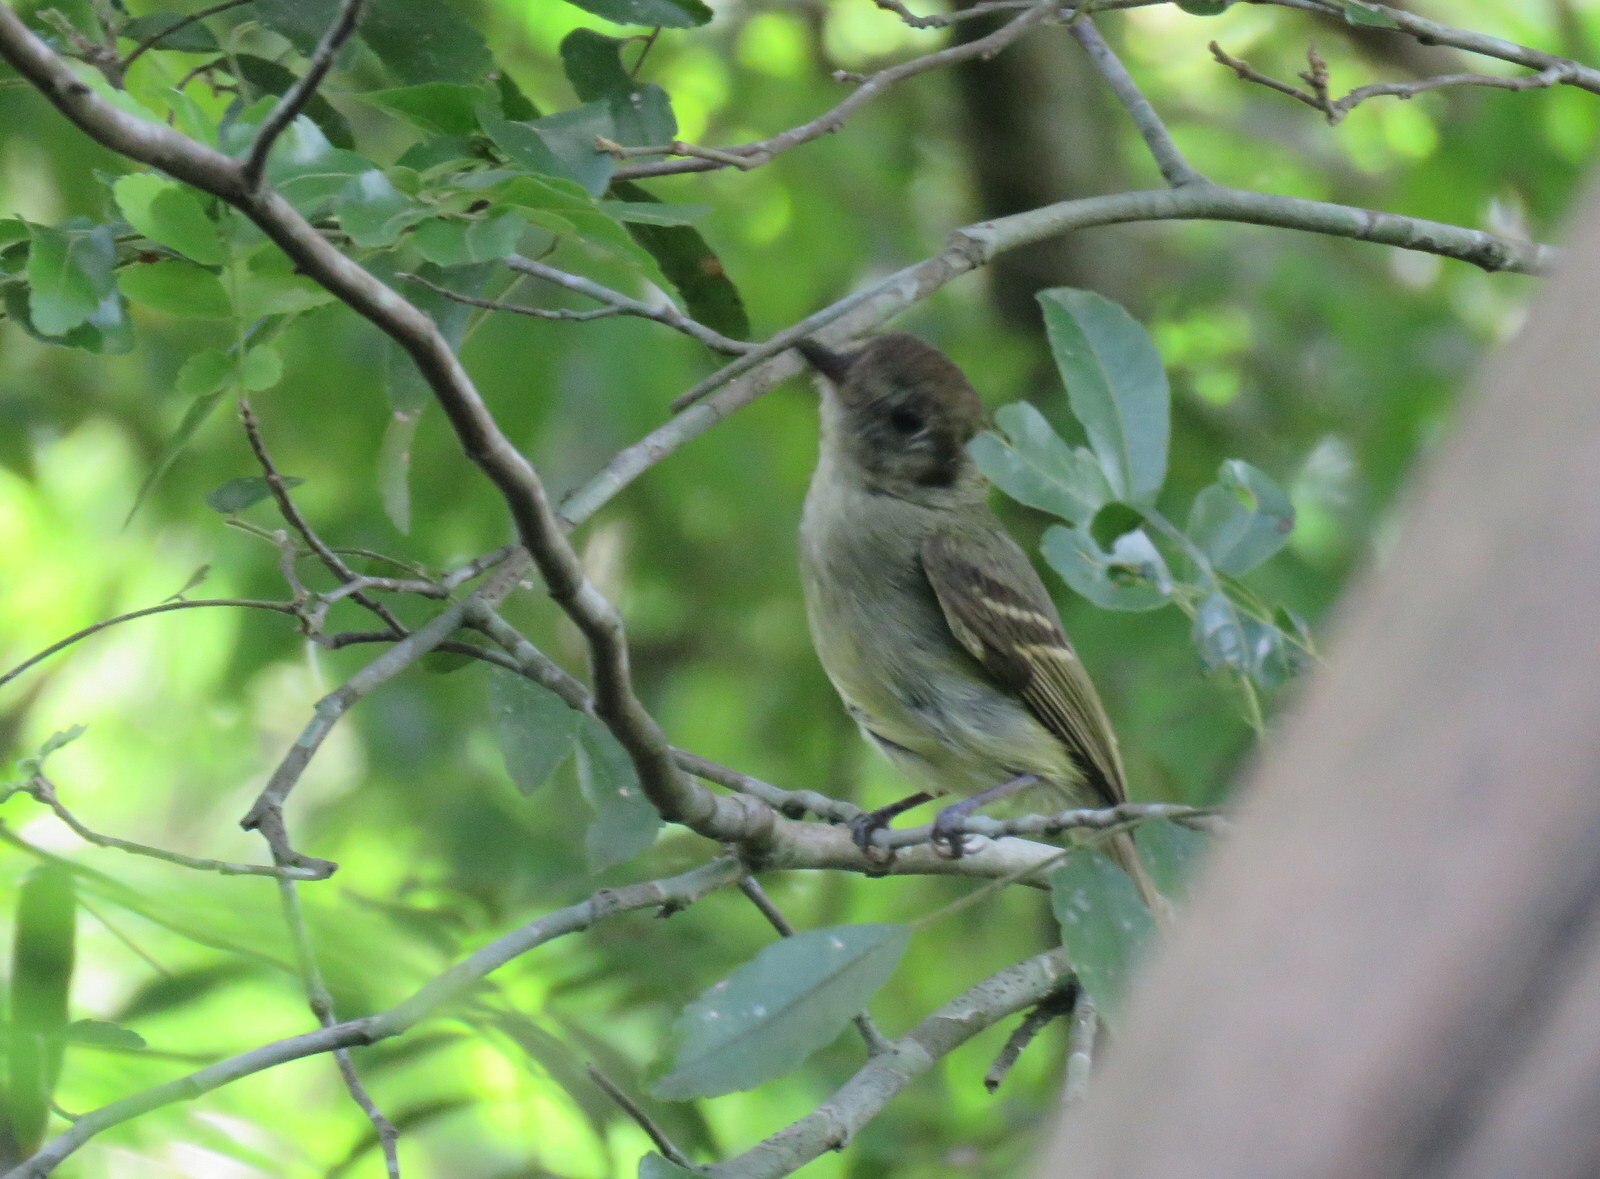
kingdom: Animalia
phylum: Chordata
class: Aves
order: Passeriformes
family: Tyrannidae
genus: Leptopogon
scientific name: Leptopogon amaurocephalus
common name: Sepia-capped flycatcher
